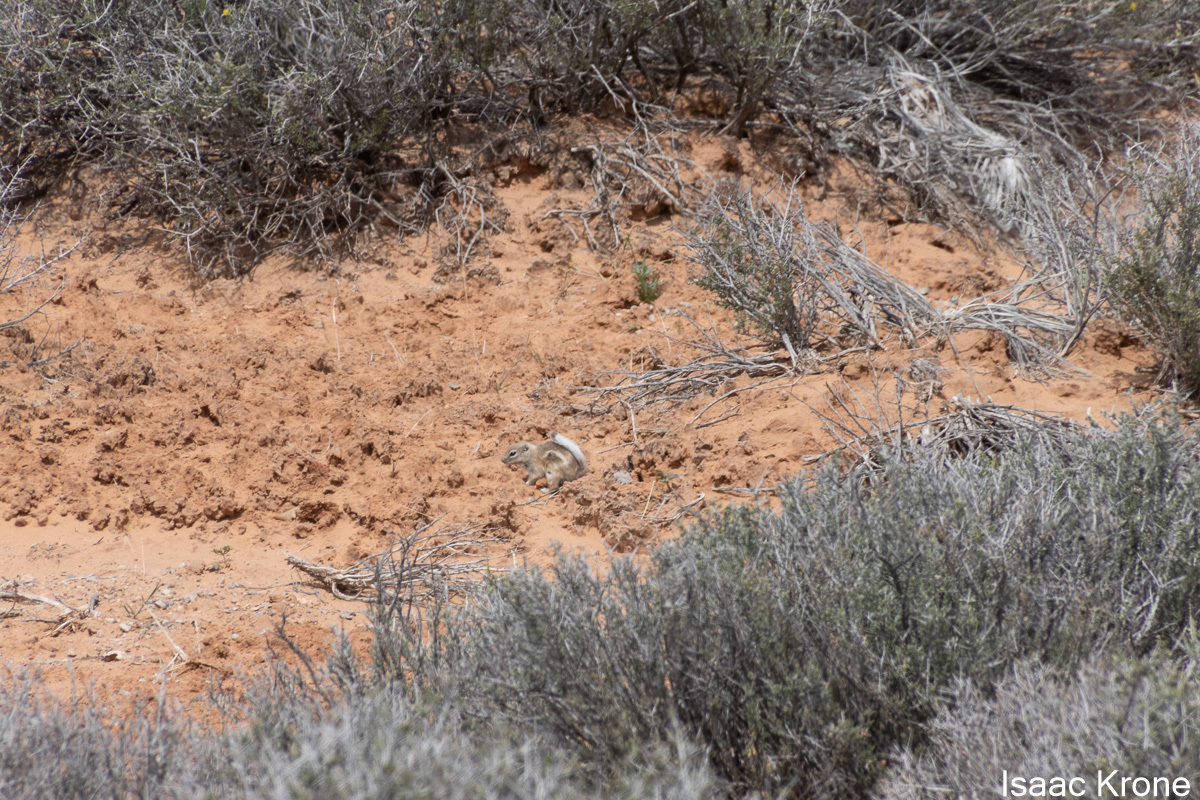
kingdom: Animalia
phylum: Chordata
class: Mammalia
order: Rodentia
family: Sciuridae
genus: Ammospermophilus
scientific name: Ammospermophilus leucurus
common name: White-tailed antelope squirrel
